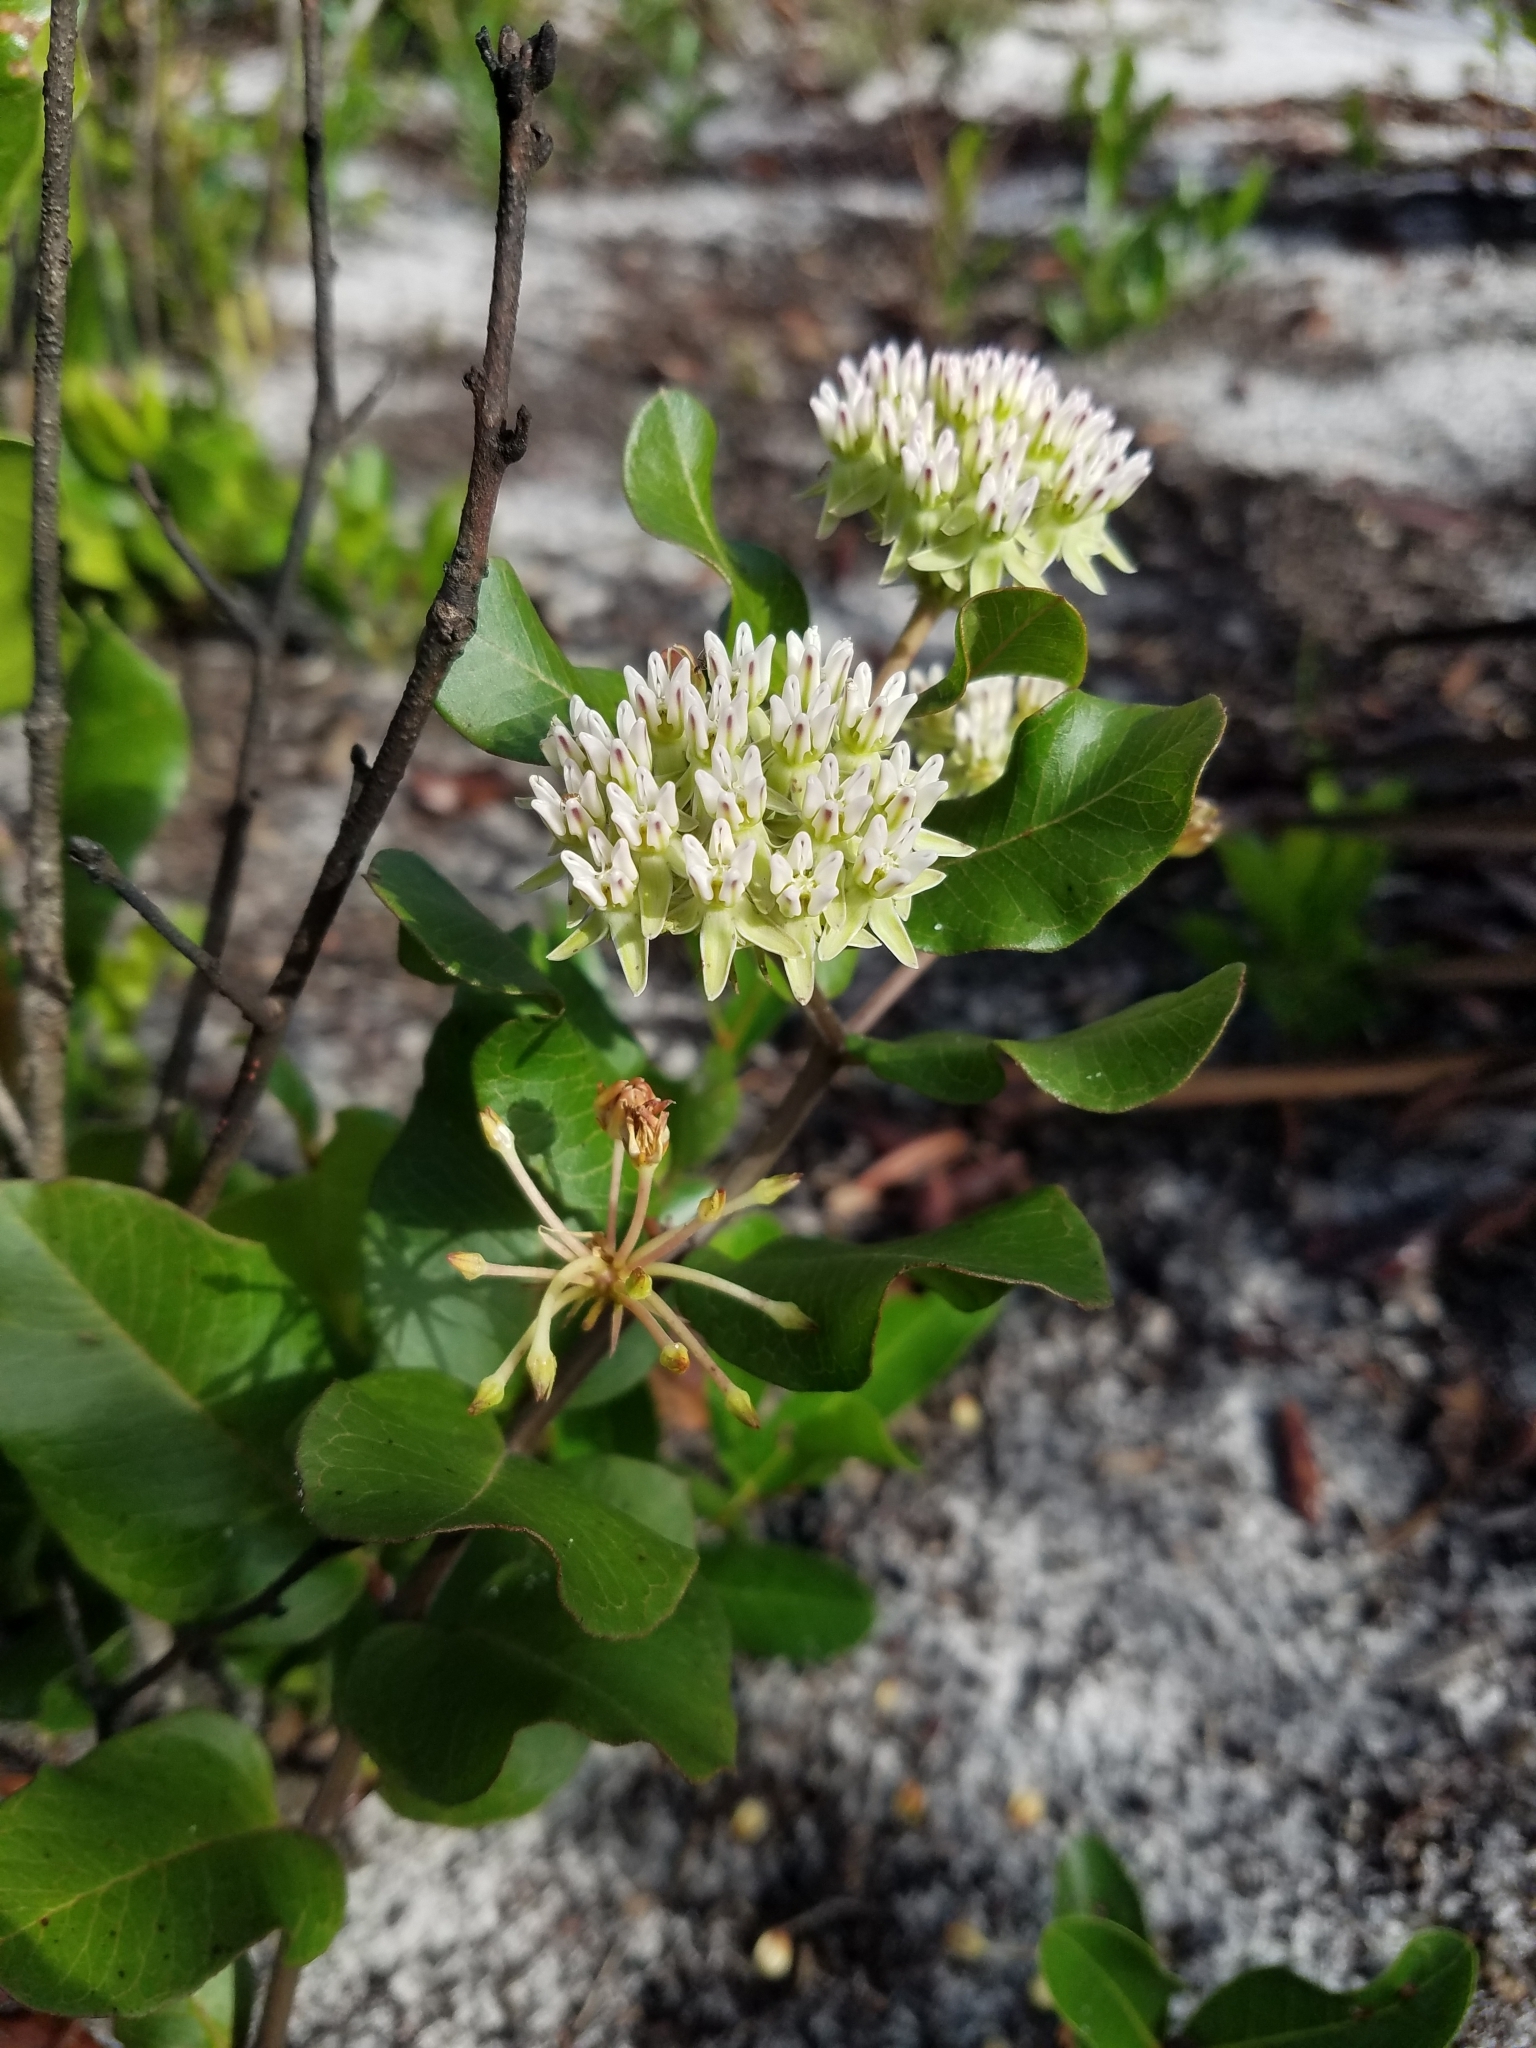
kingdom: Plantae
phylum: Tracheophyta
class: Magnoliopsida
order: Gentianales
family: Apocynaceae
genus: Asclepias
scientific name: Asclepias curtissii
